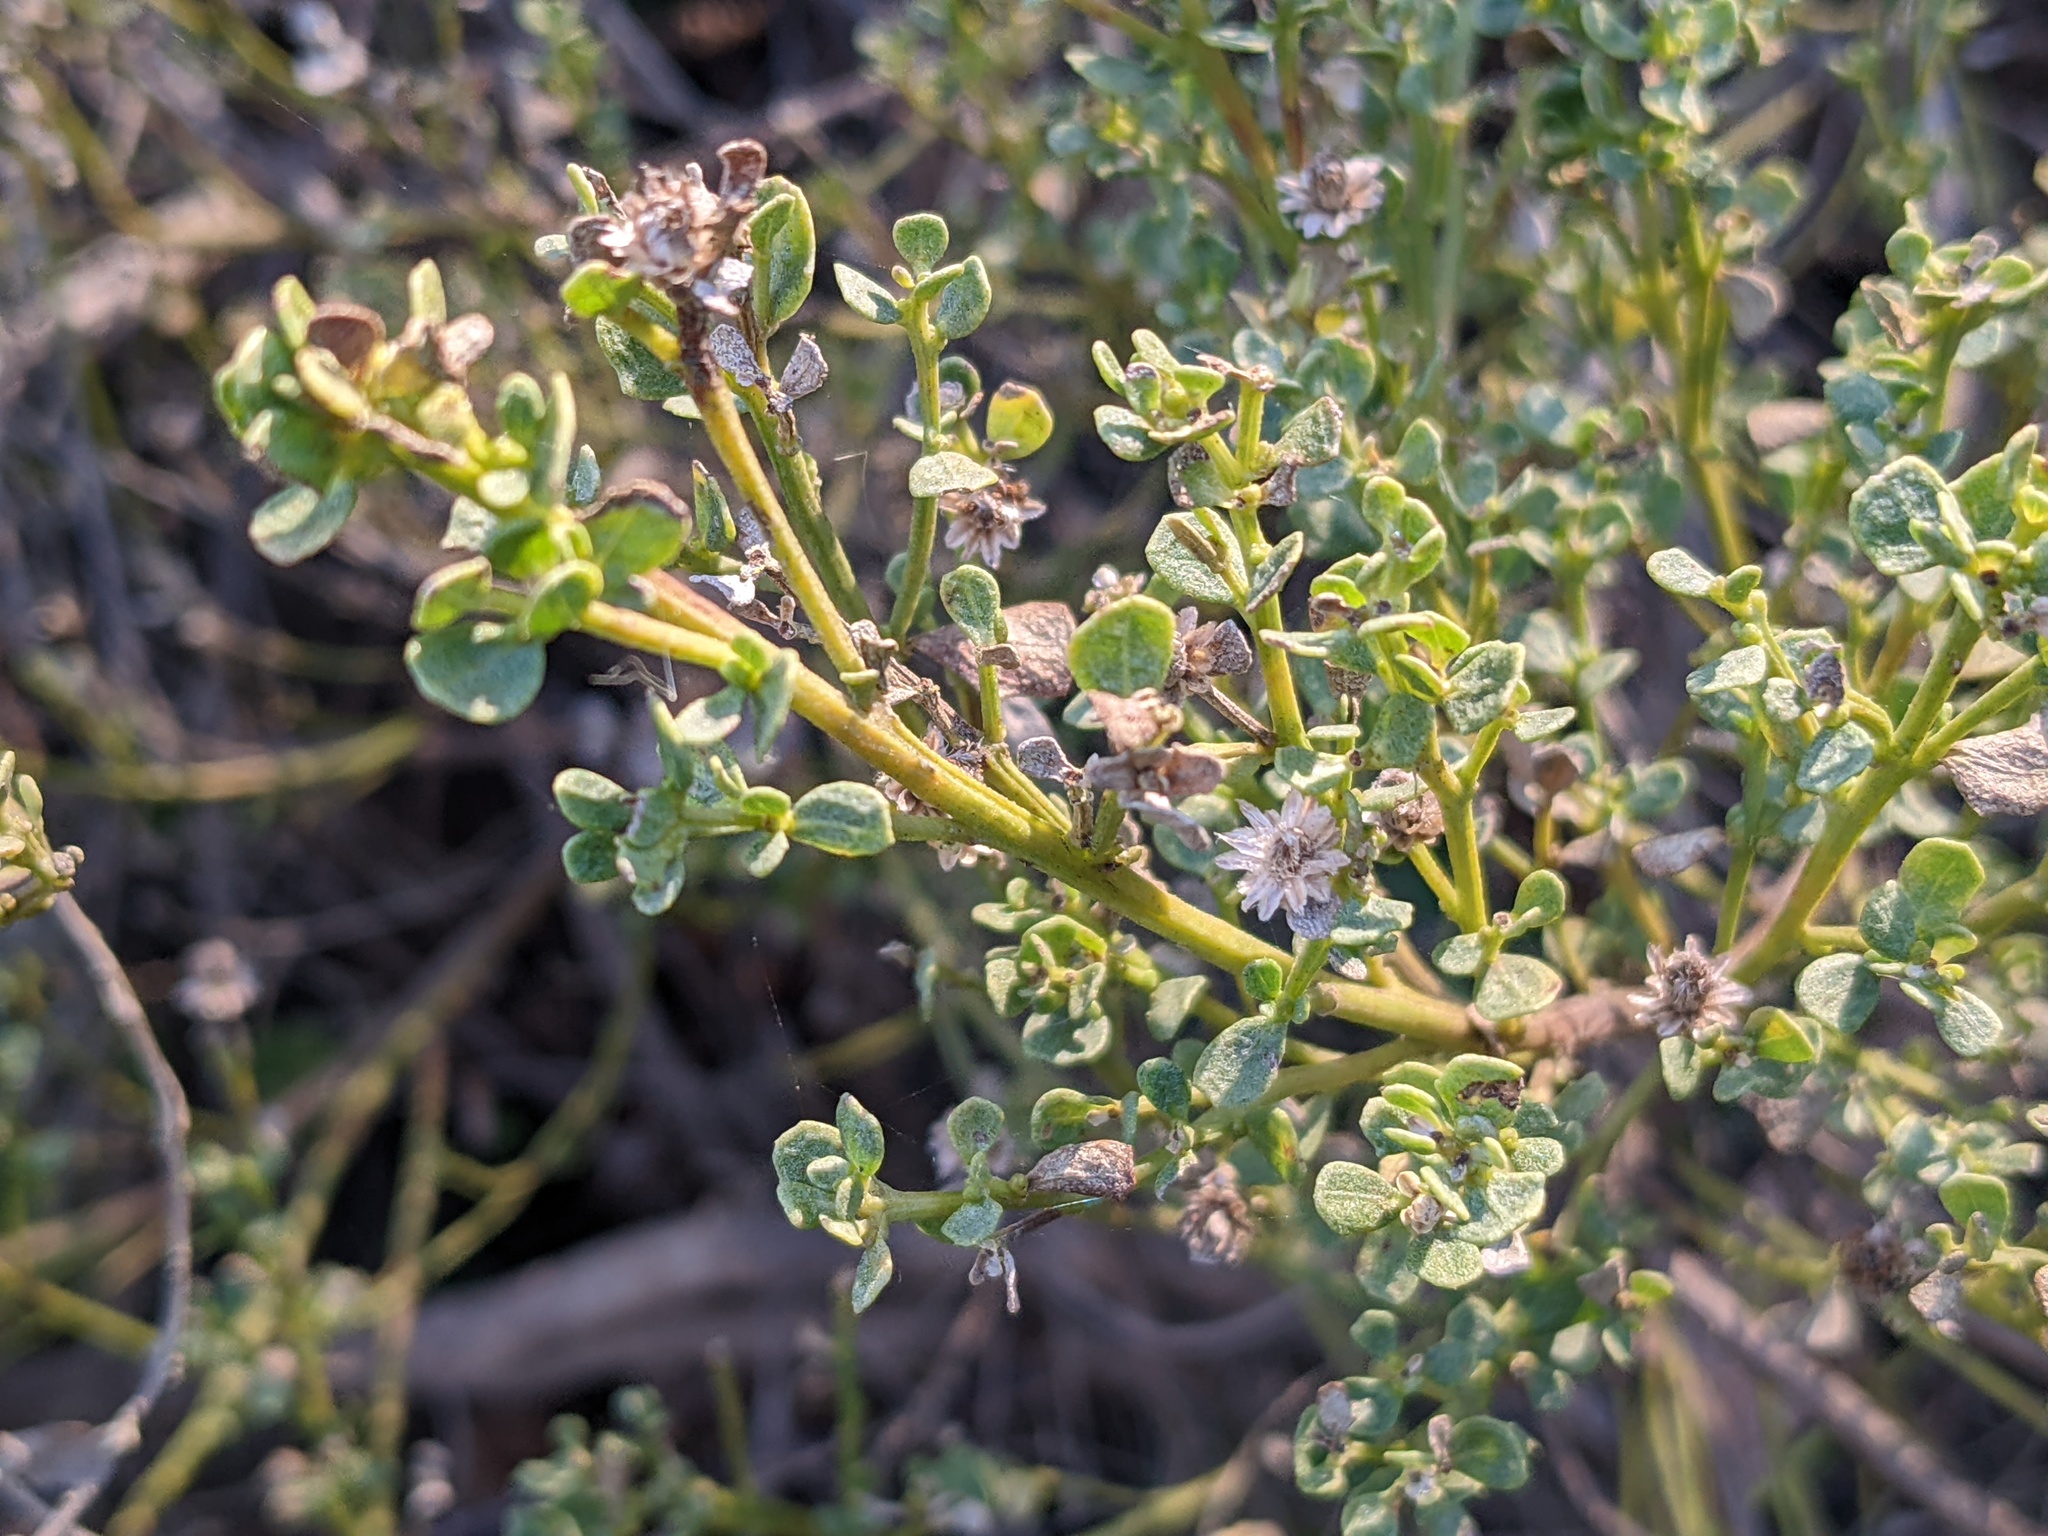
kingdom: Plantae
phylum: Tracheophyta
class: Magnoliopsida
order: Asterales
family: Asteraceae
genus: Baccharis
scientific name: Baccharis pilularis
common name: Coyotebrush
